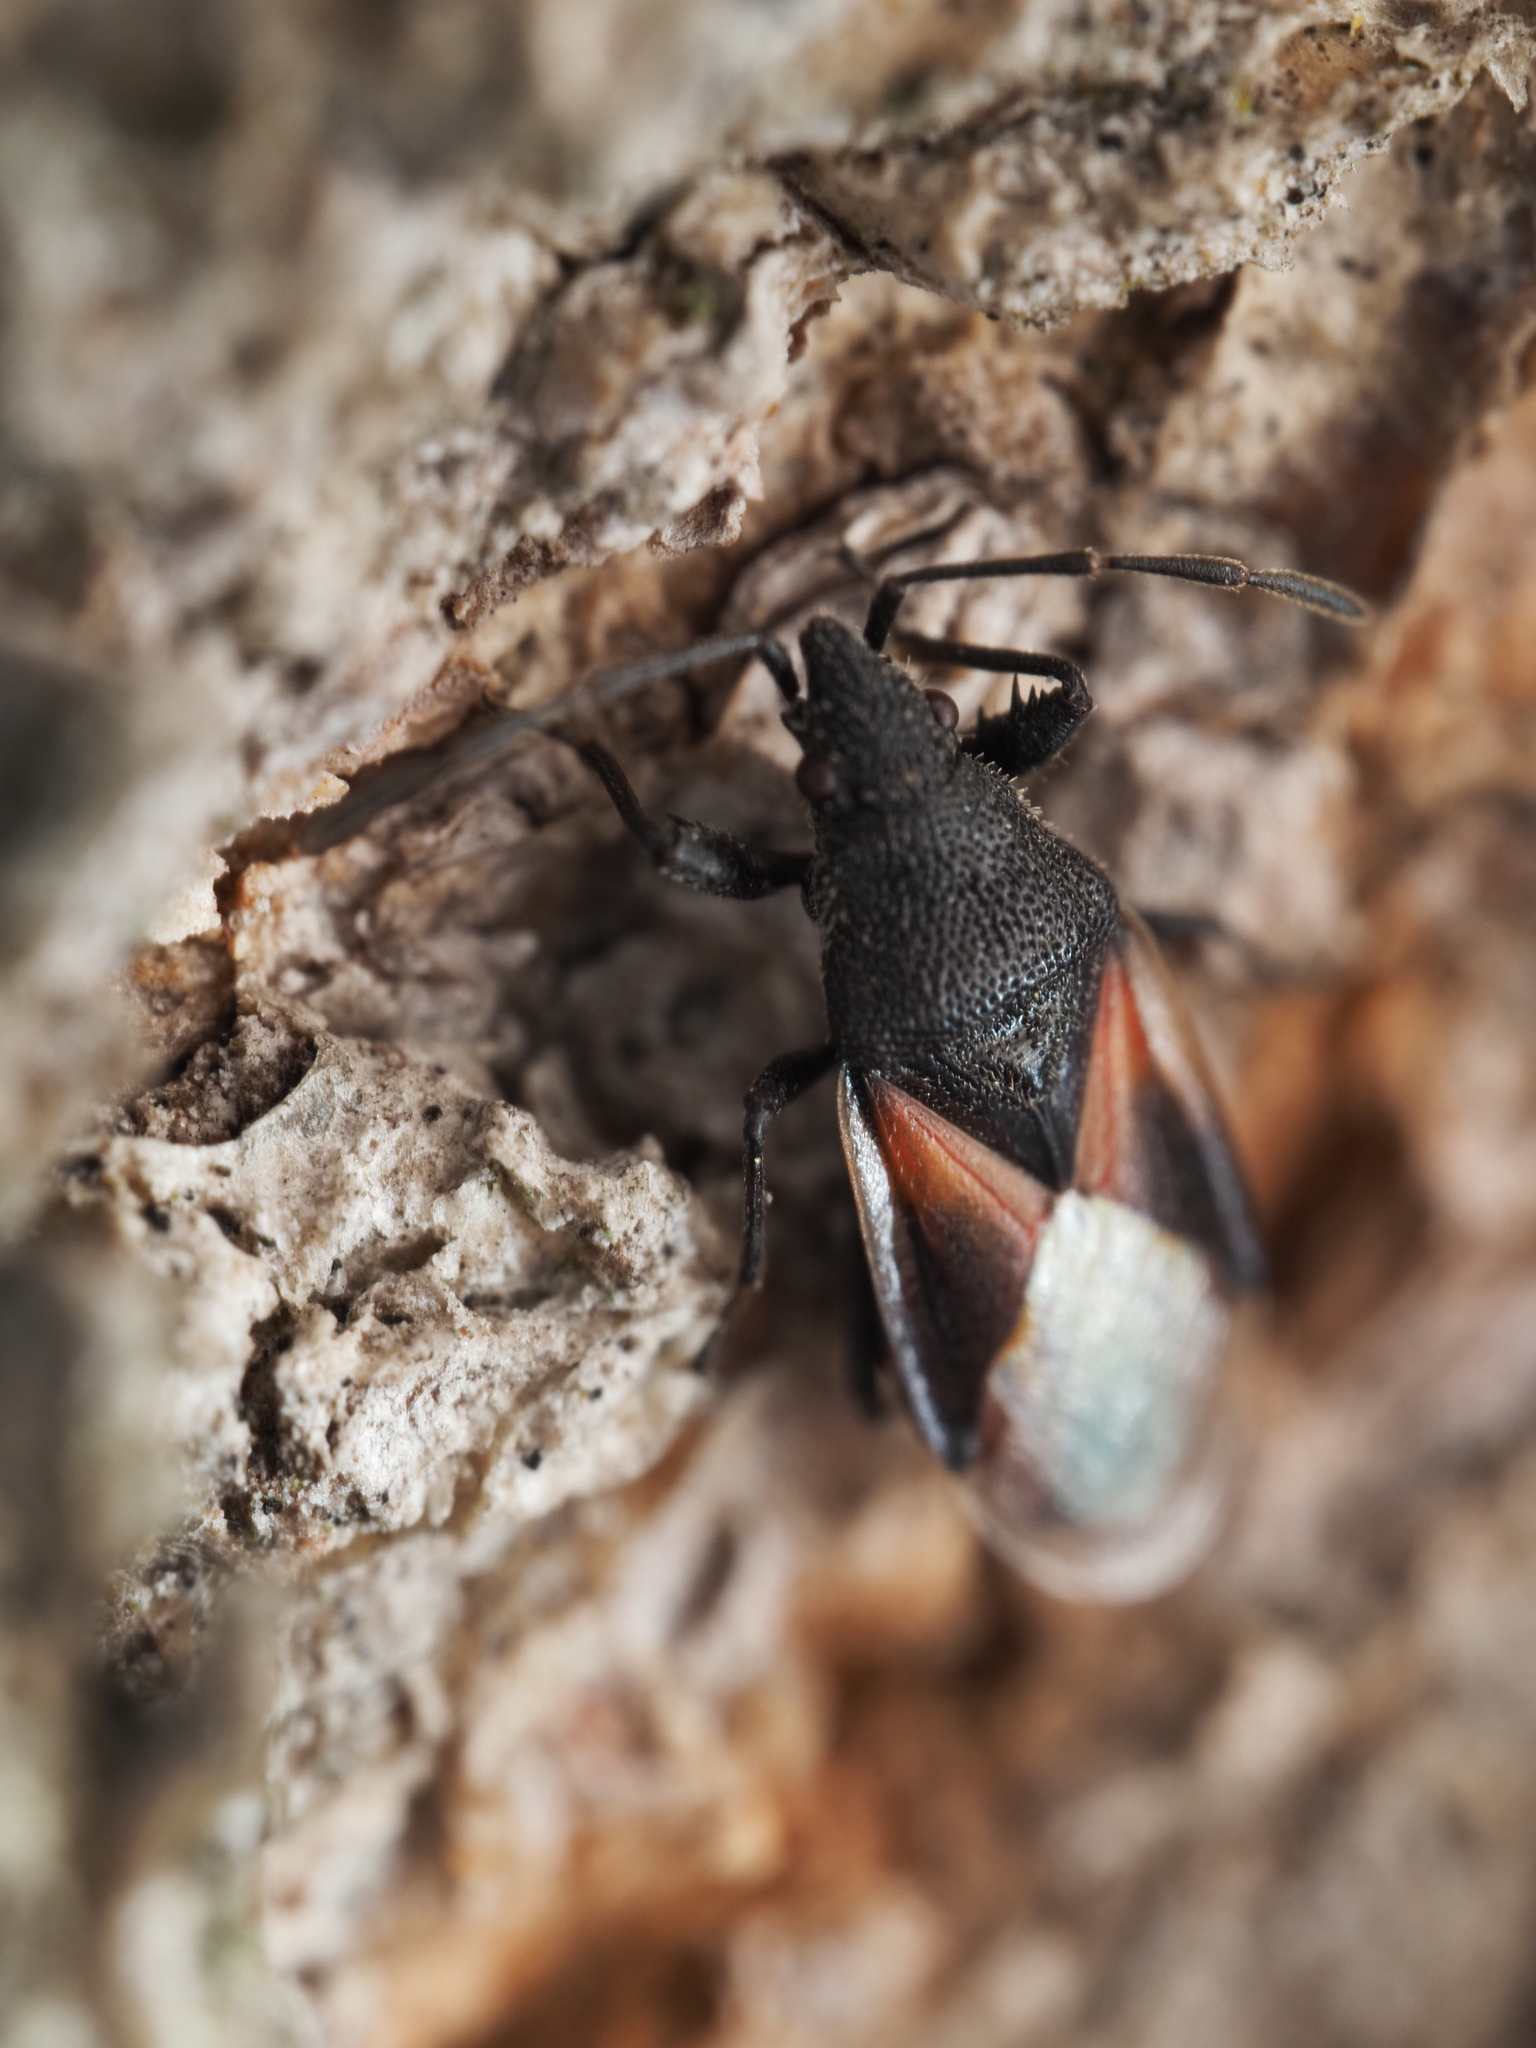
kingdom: Animalia
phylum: Arthropoda
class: Insecta
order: Hemiptera
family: Oxycarenidae
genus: Oxycarenus
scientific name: Oxycarenus lavaterae
